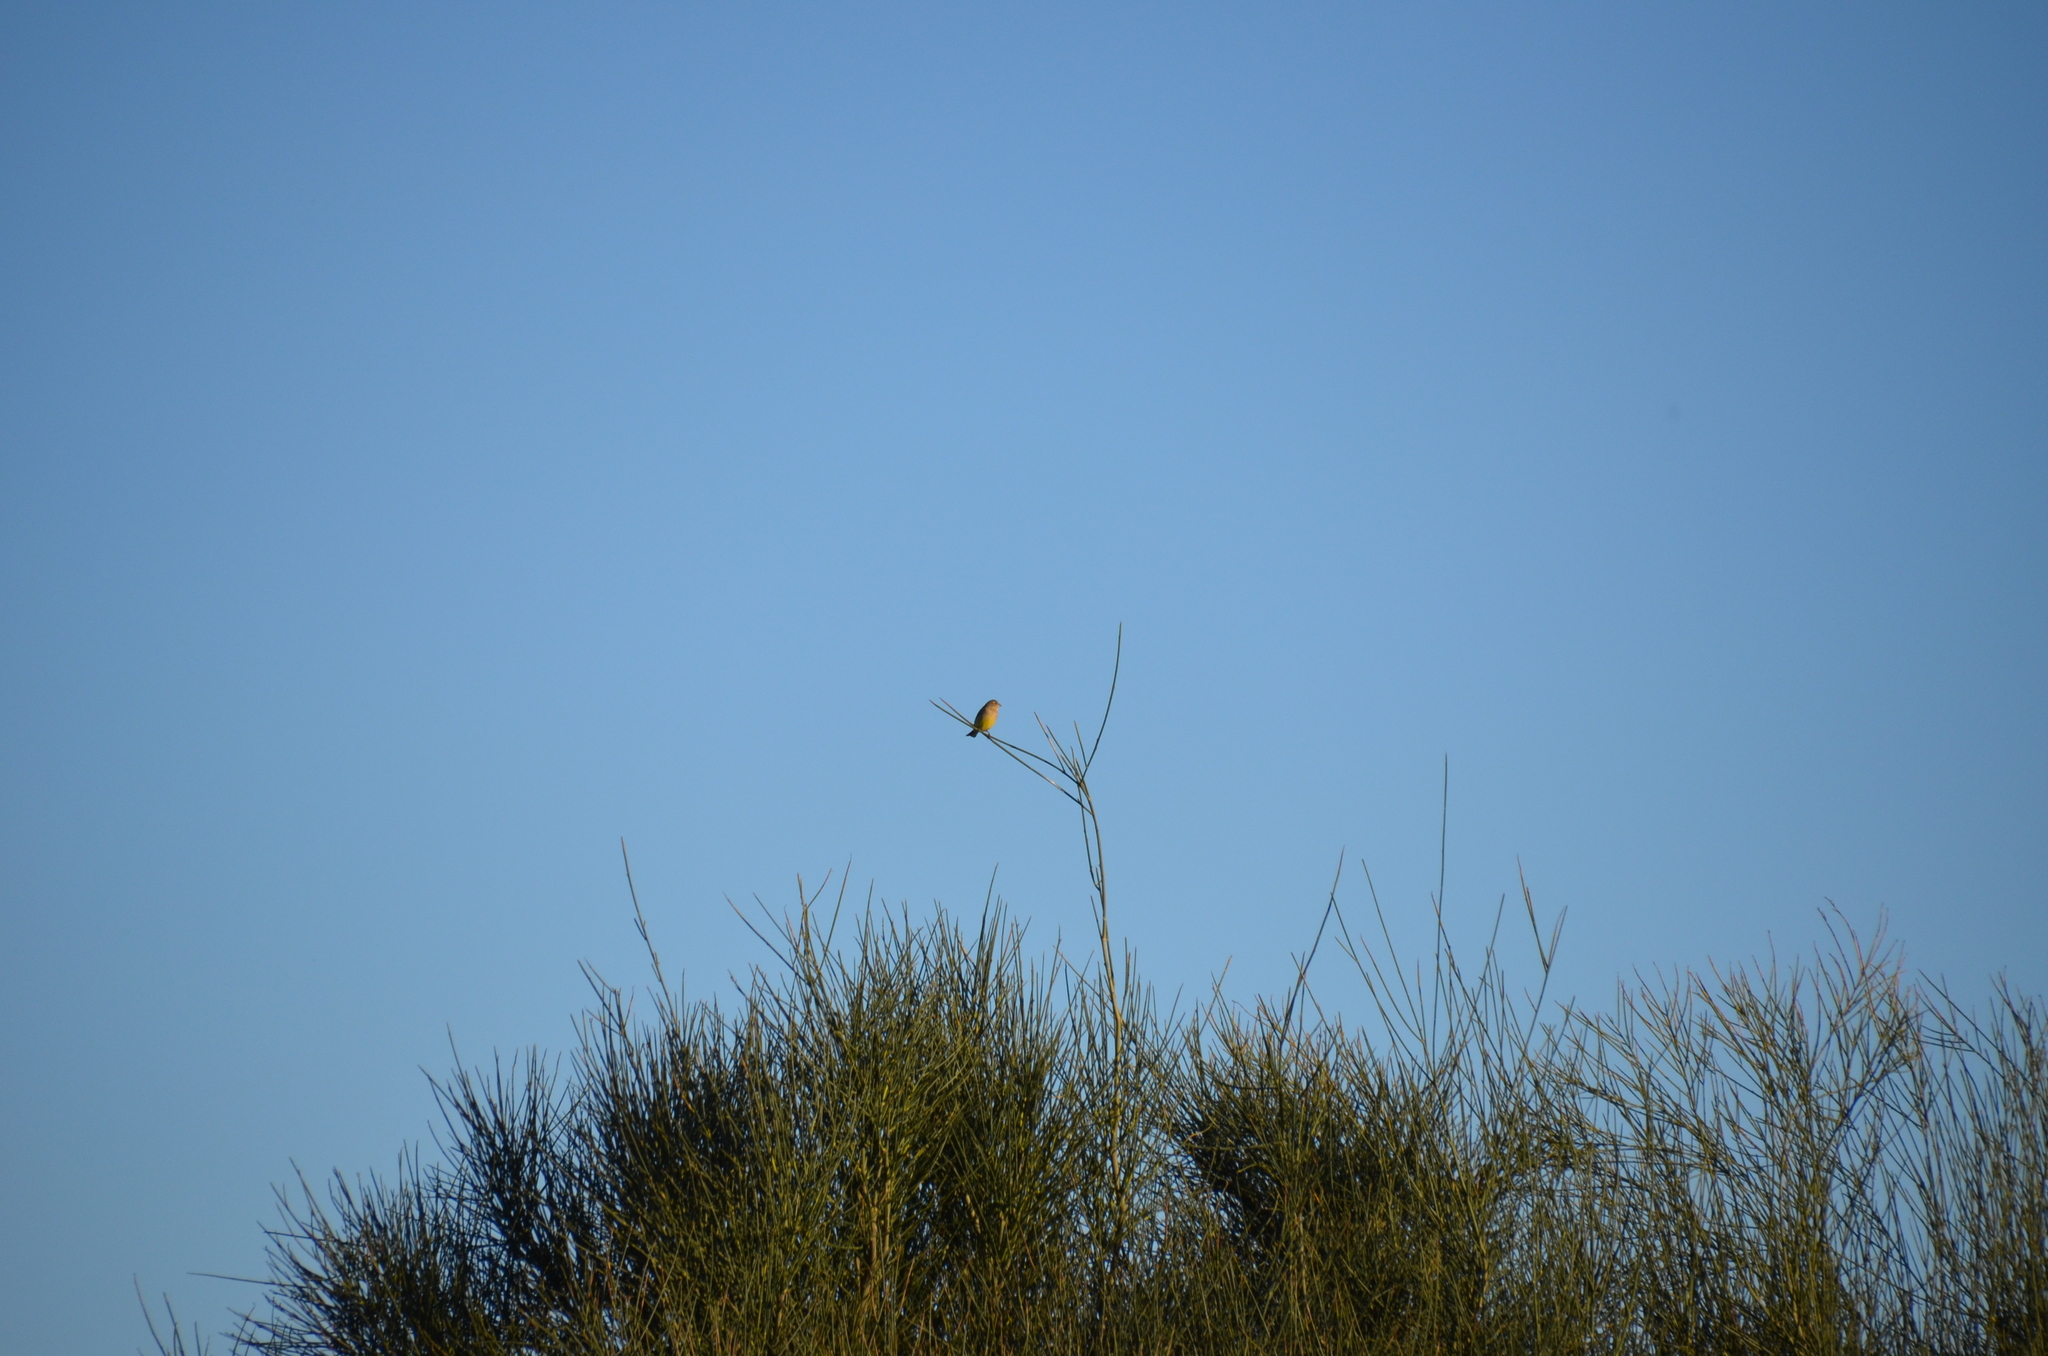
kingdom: Animalia
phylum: Chordata
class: Aves
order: Passeriformes
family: Thraupidae
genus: Sicalis
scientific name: Sicalis luteola
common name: Grassland yellow-finch
